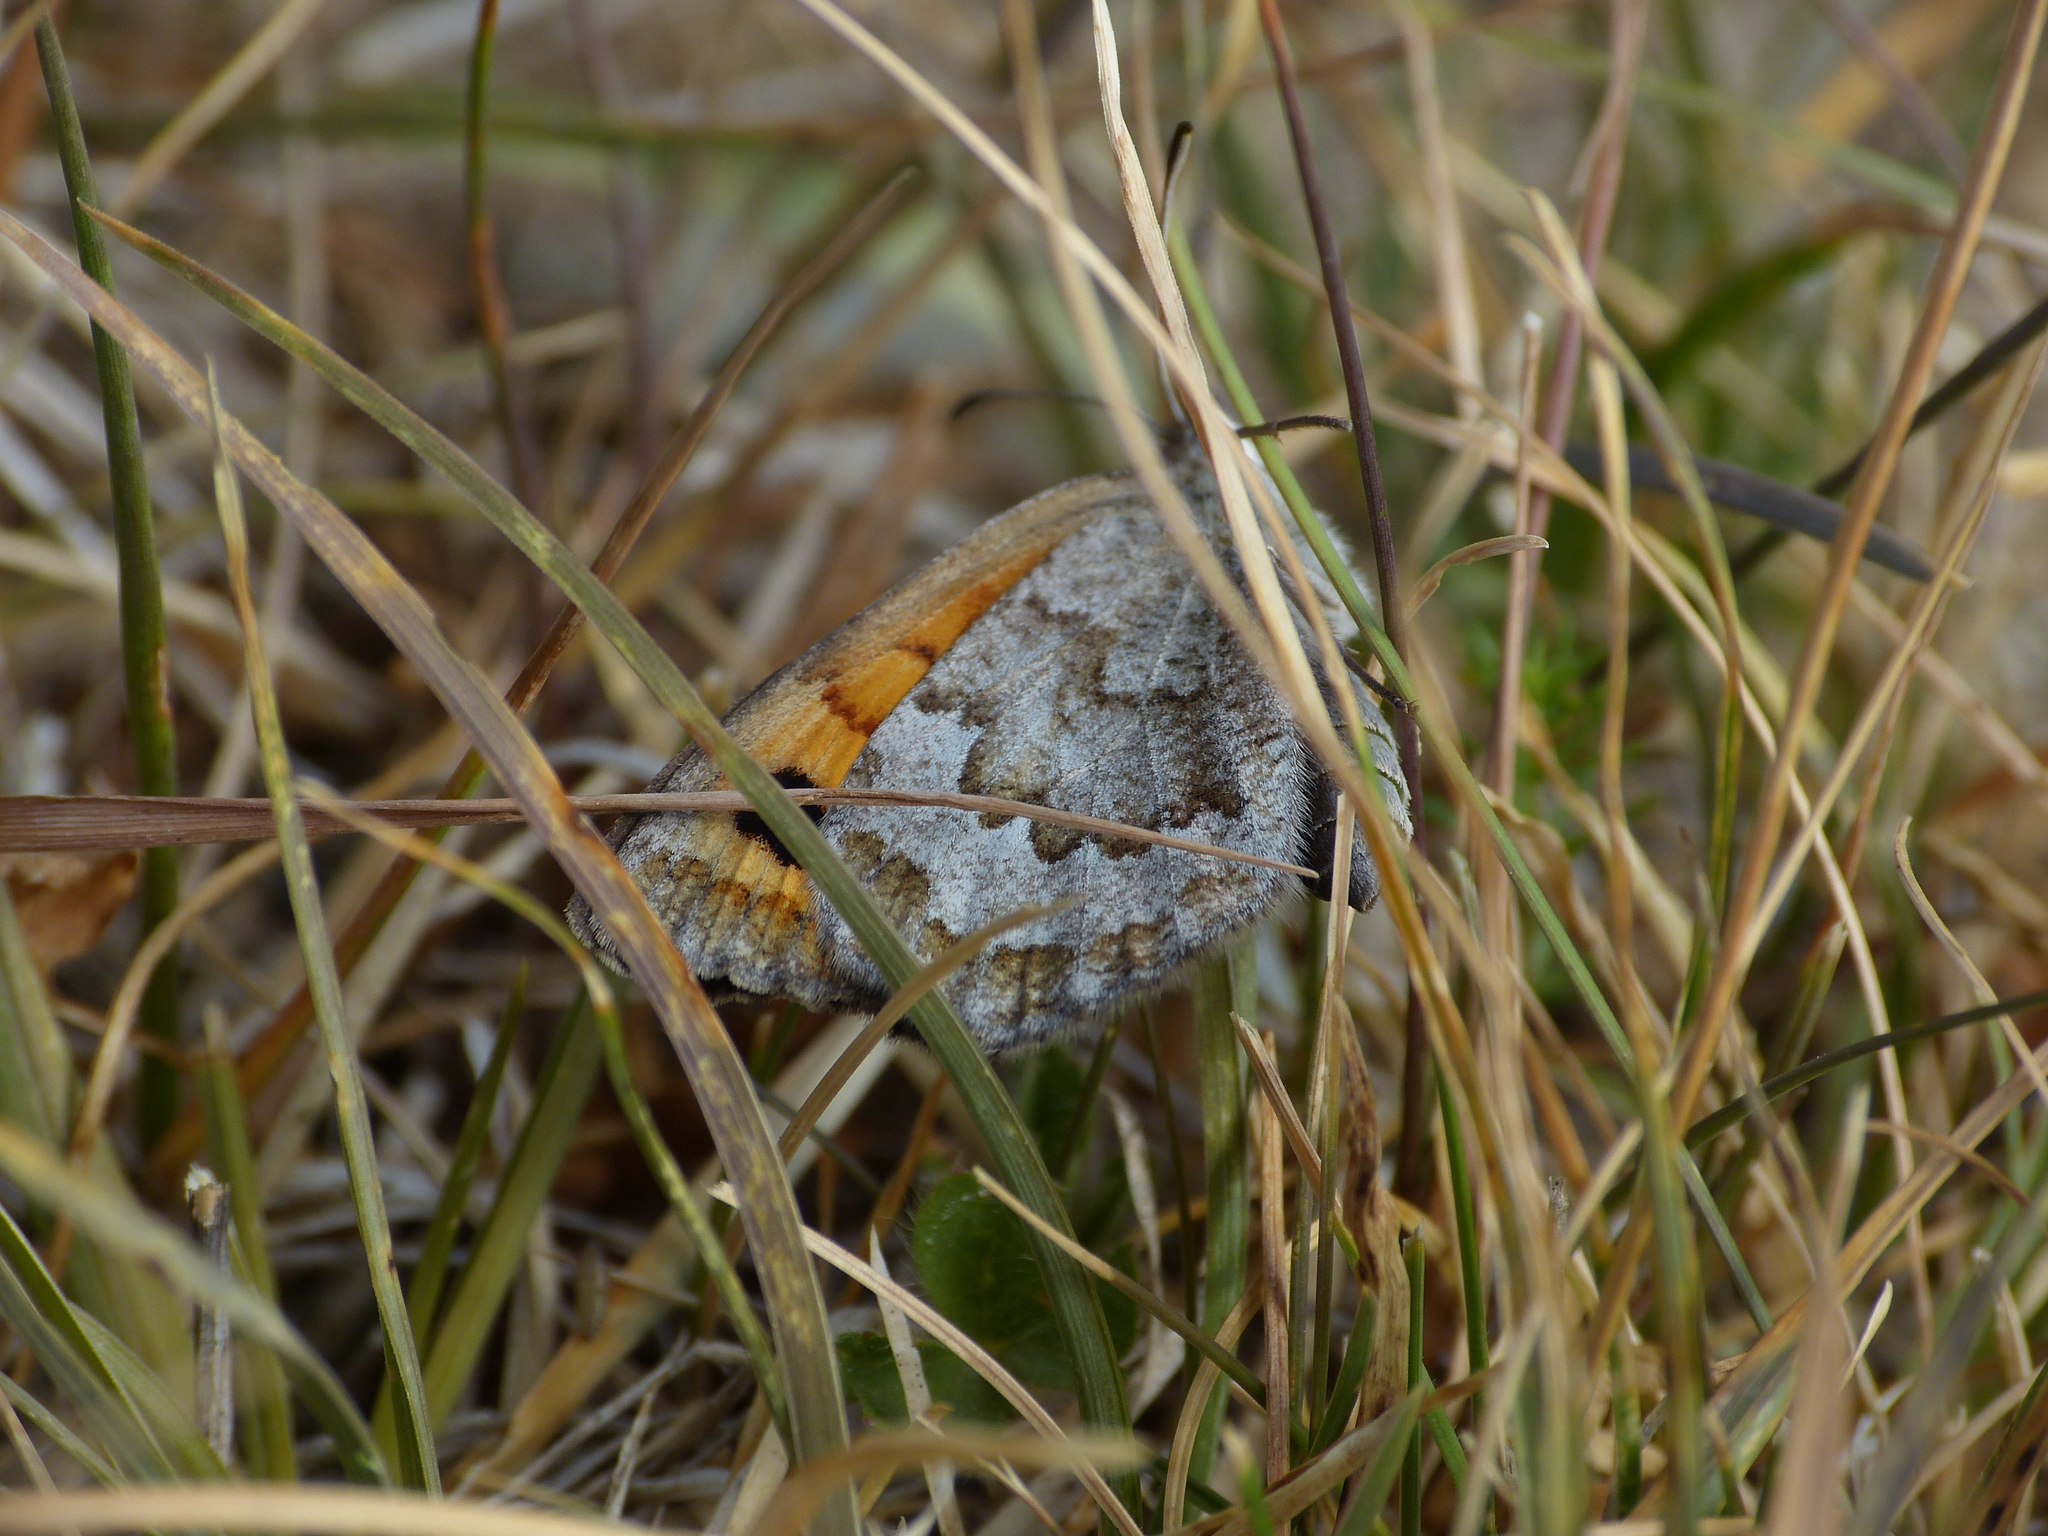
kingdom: Animalia
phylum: Arthropoda
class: Insecta
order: Lepidoptera
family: Nymphalidae
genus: Erebia
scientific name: Erebia tyndarus
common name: Swiss brassy ringlet
